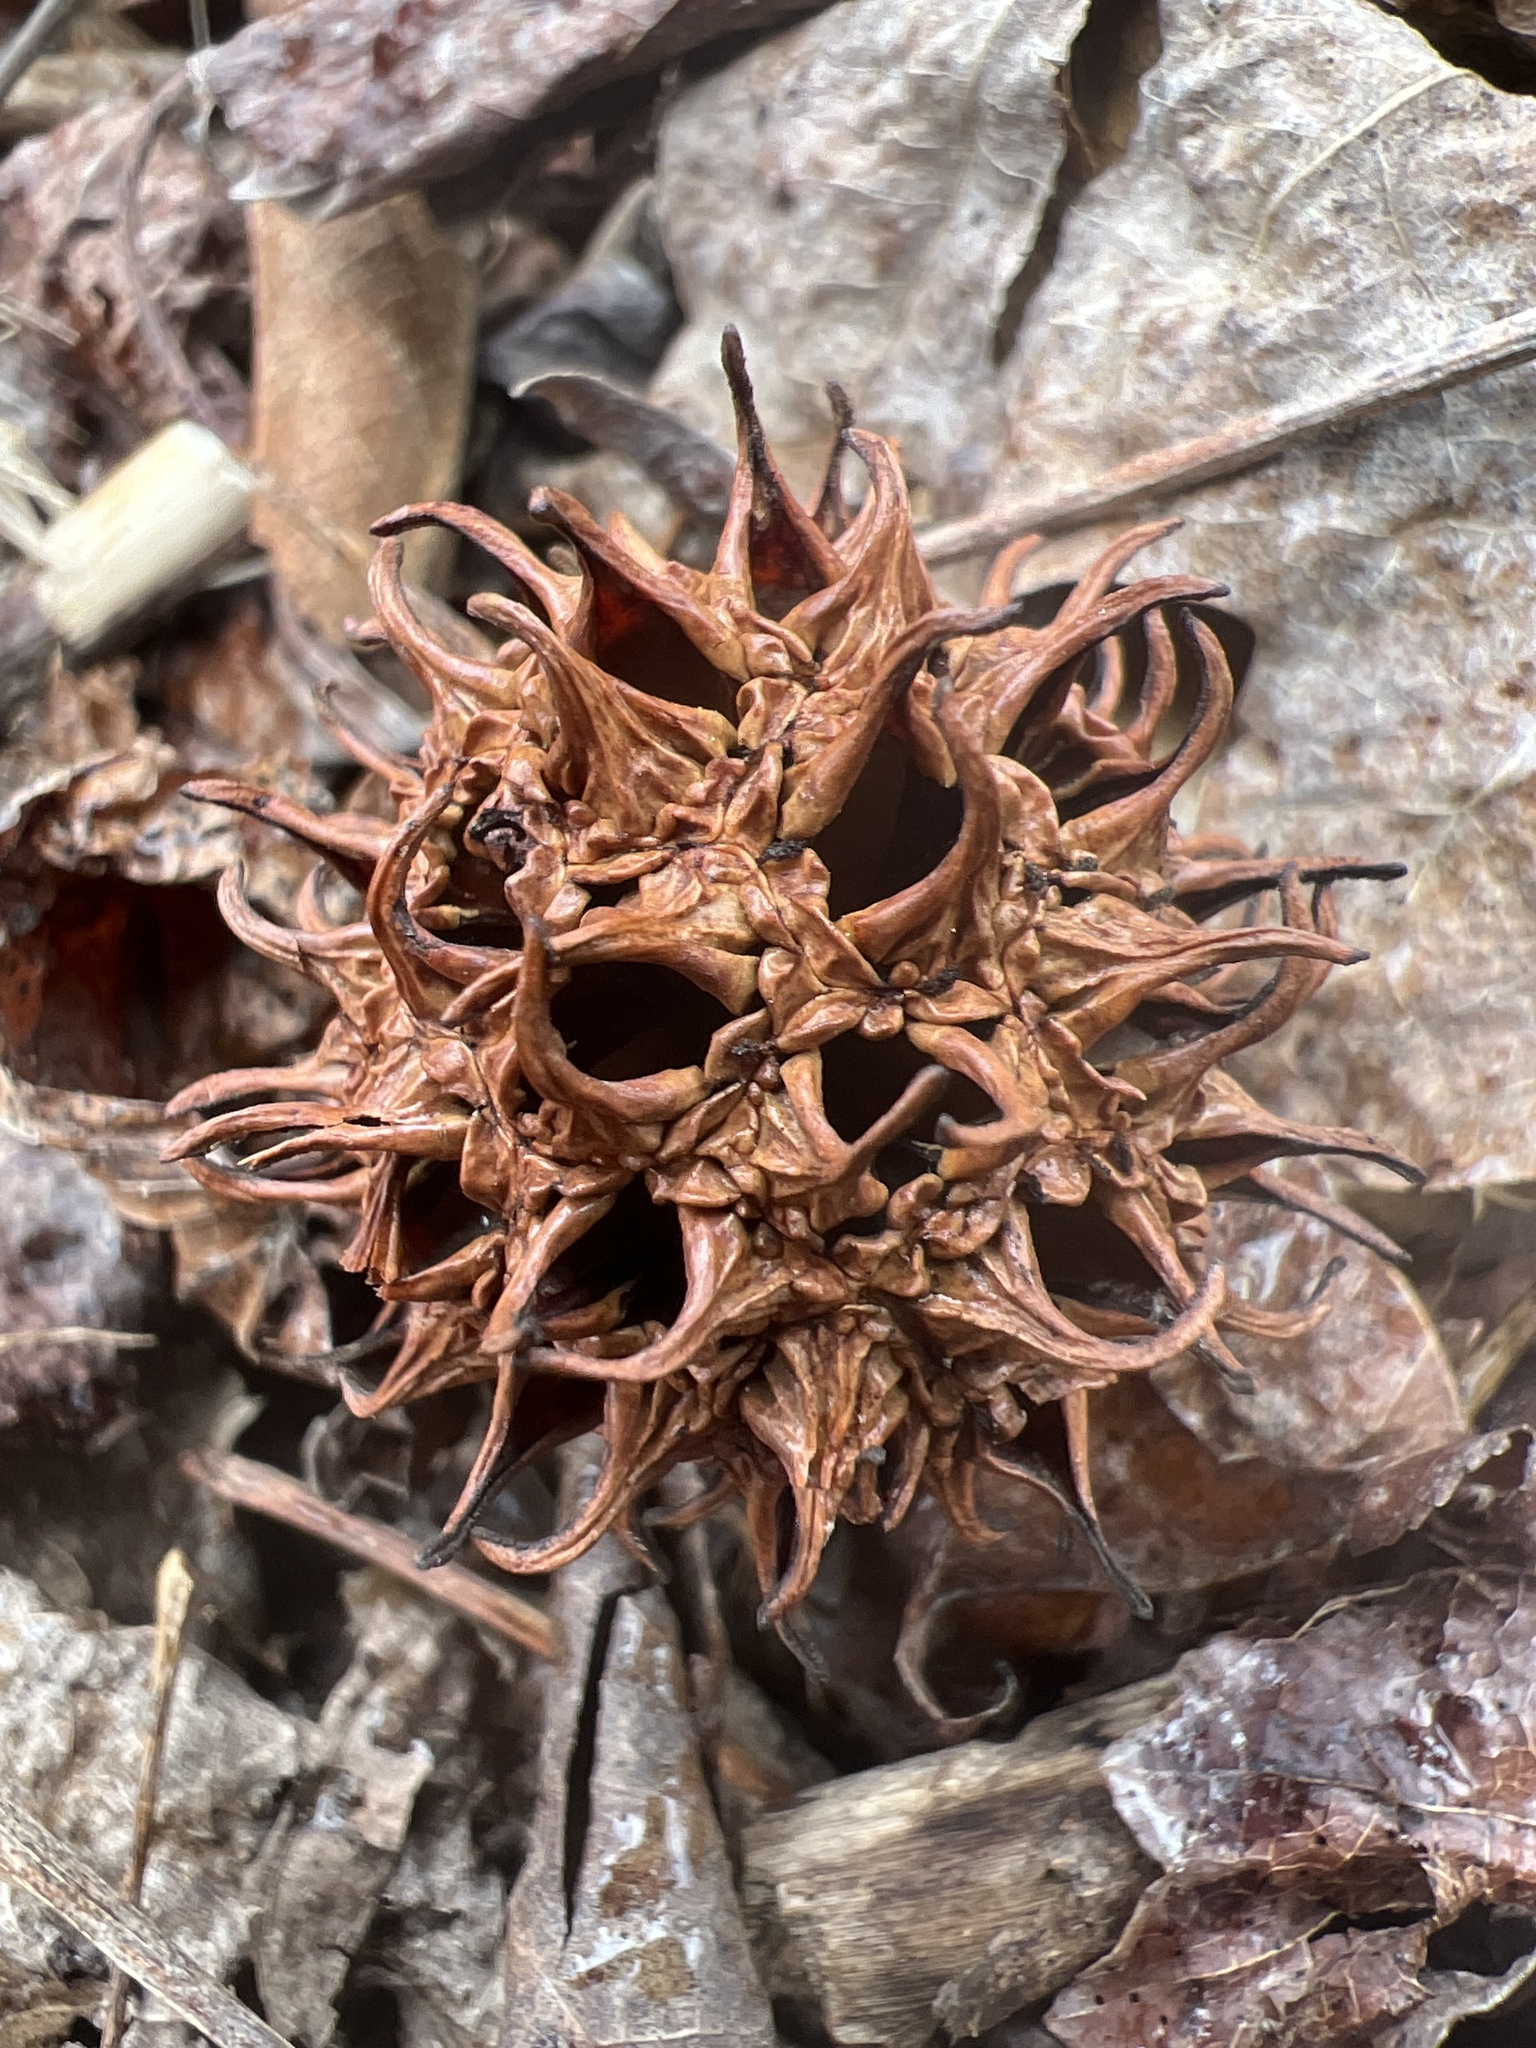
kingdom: Plantae
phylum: Tracheophyta
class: Magnoliopsida
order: Saxifragales
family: Altingiaceae
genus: Liquidambar
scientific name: Liquidambar styraciflua
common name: Sweet gum
